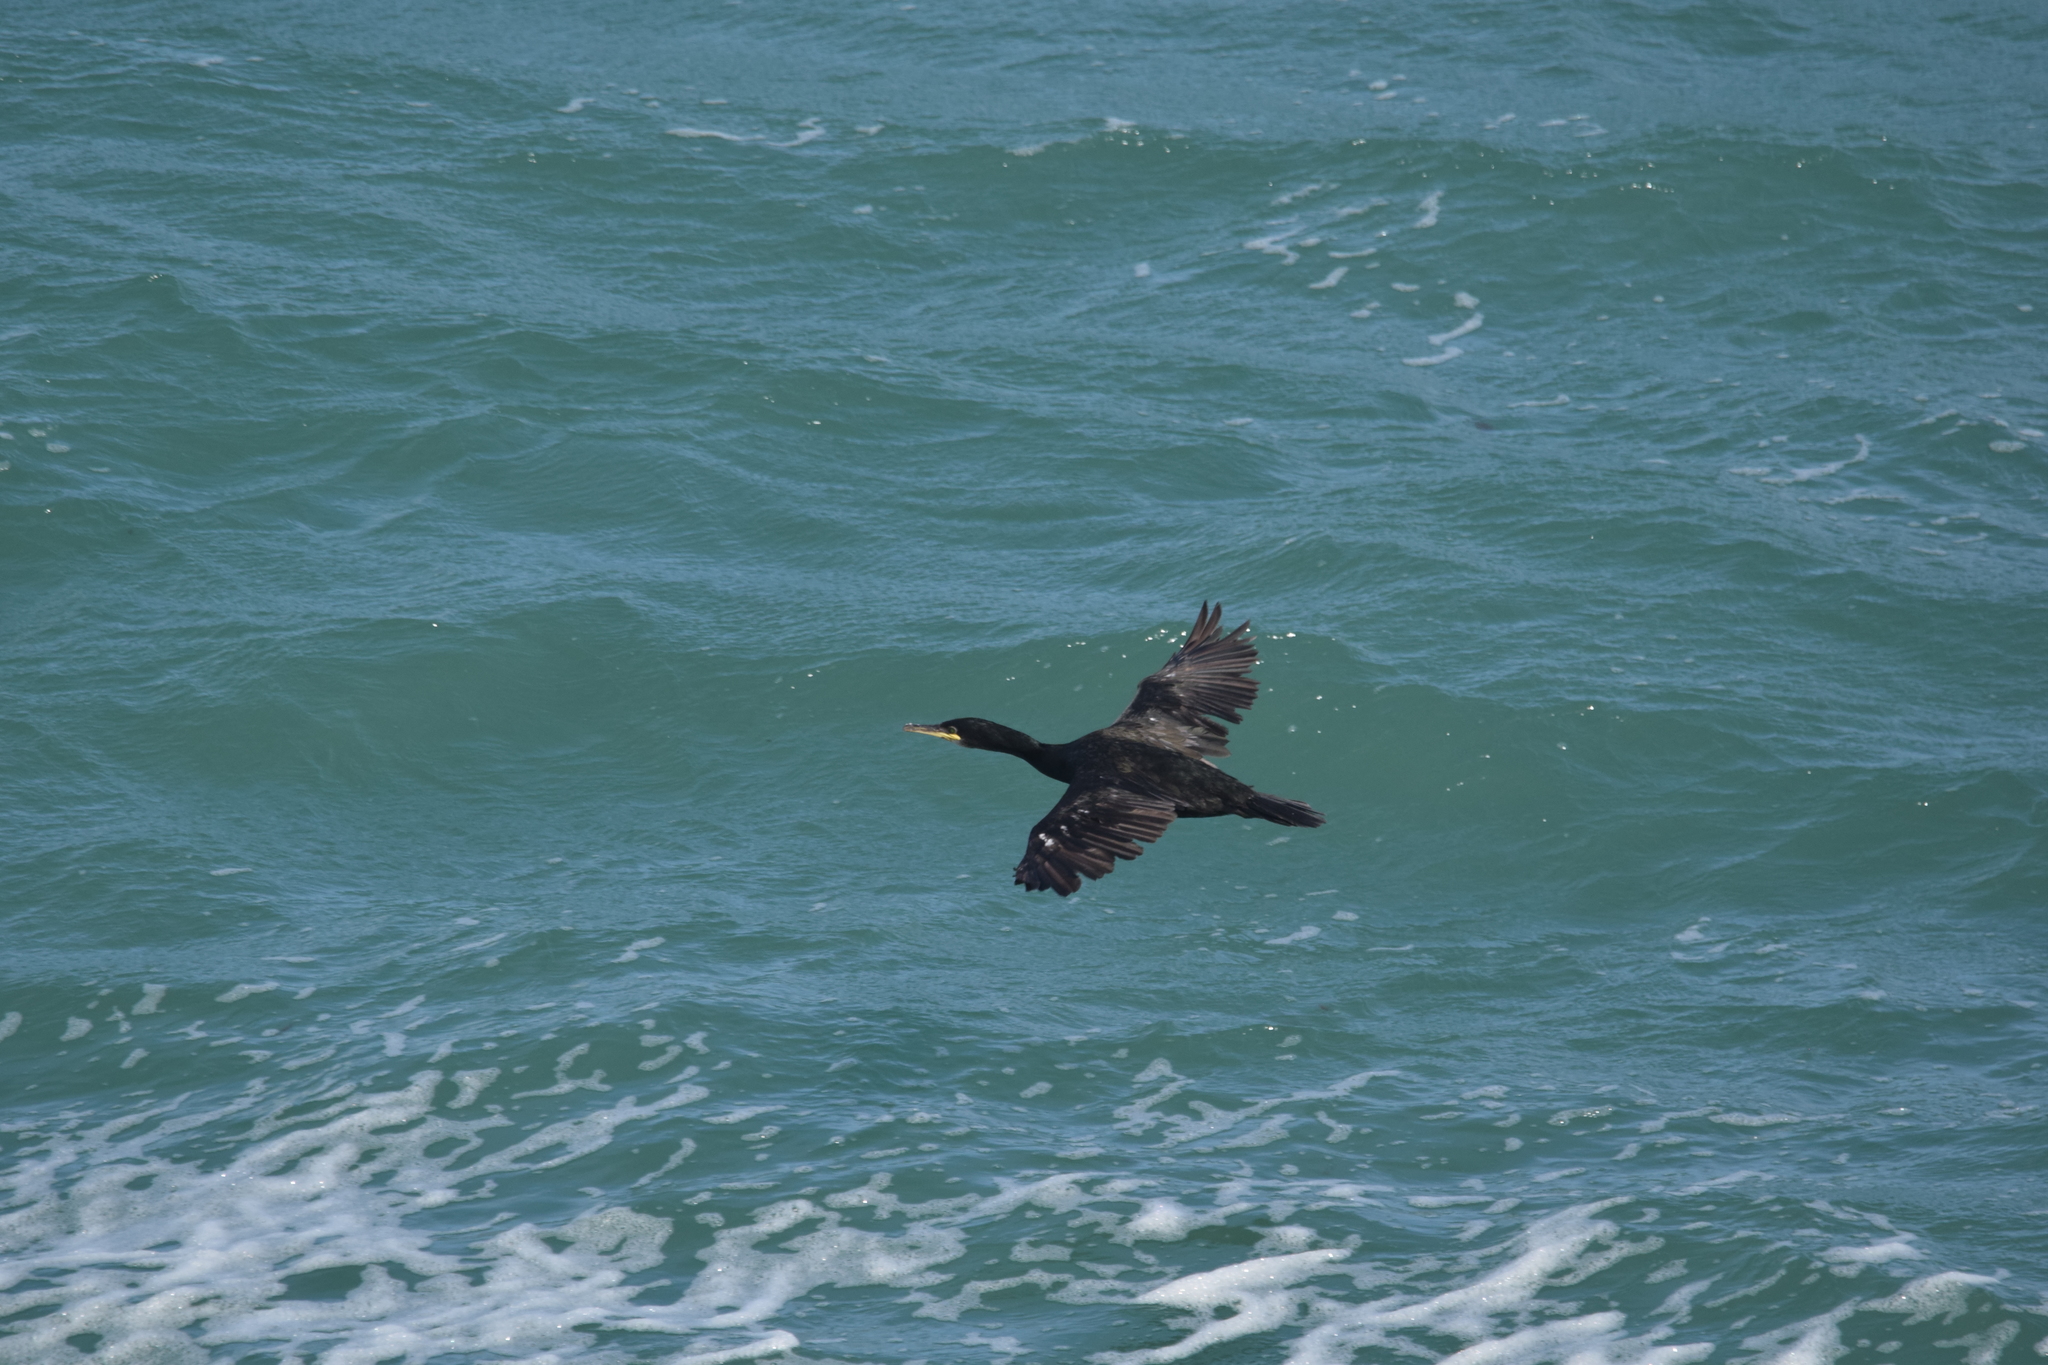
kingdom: Animalia
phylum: Chordata
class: Aves
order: Suliformes
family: Phalacrocoracidae
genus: Phalacrocorax
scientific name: Phalacrocorax aristotelis
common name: European shag
